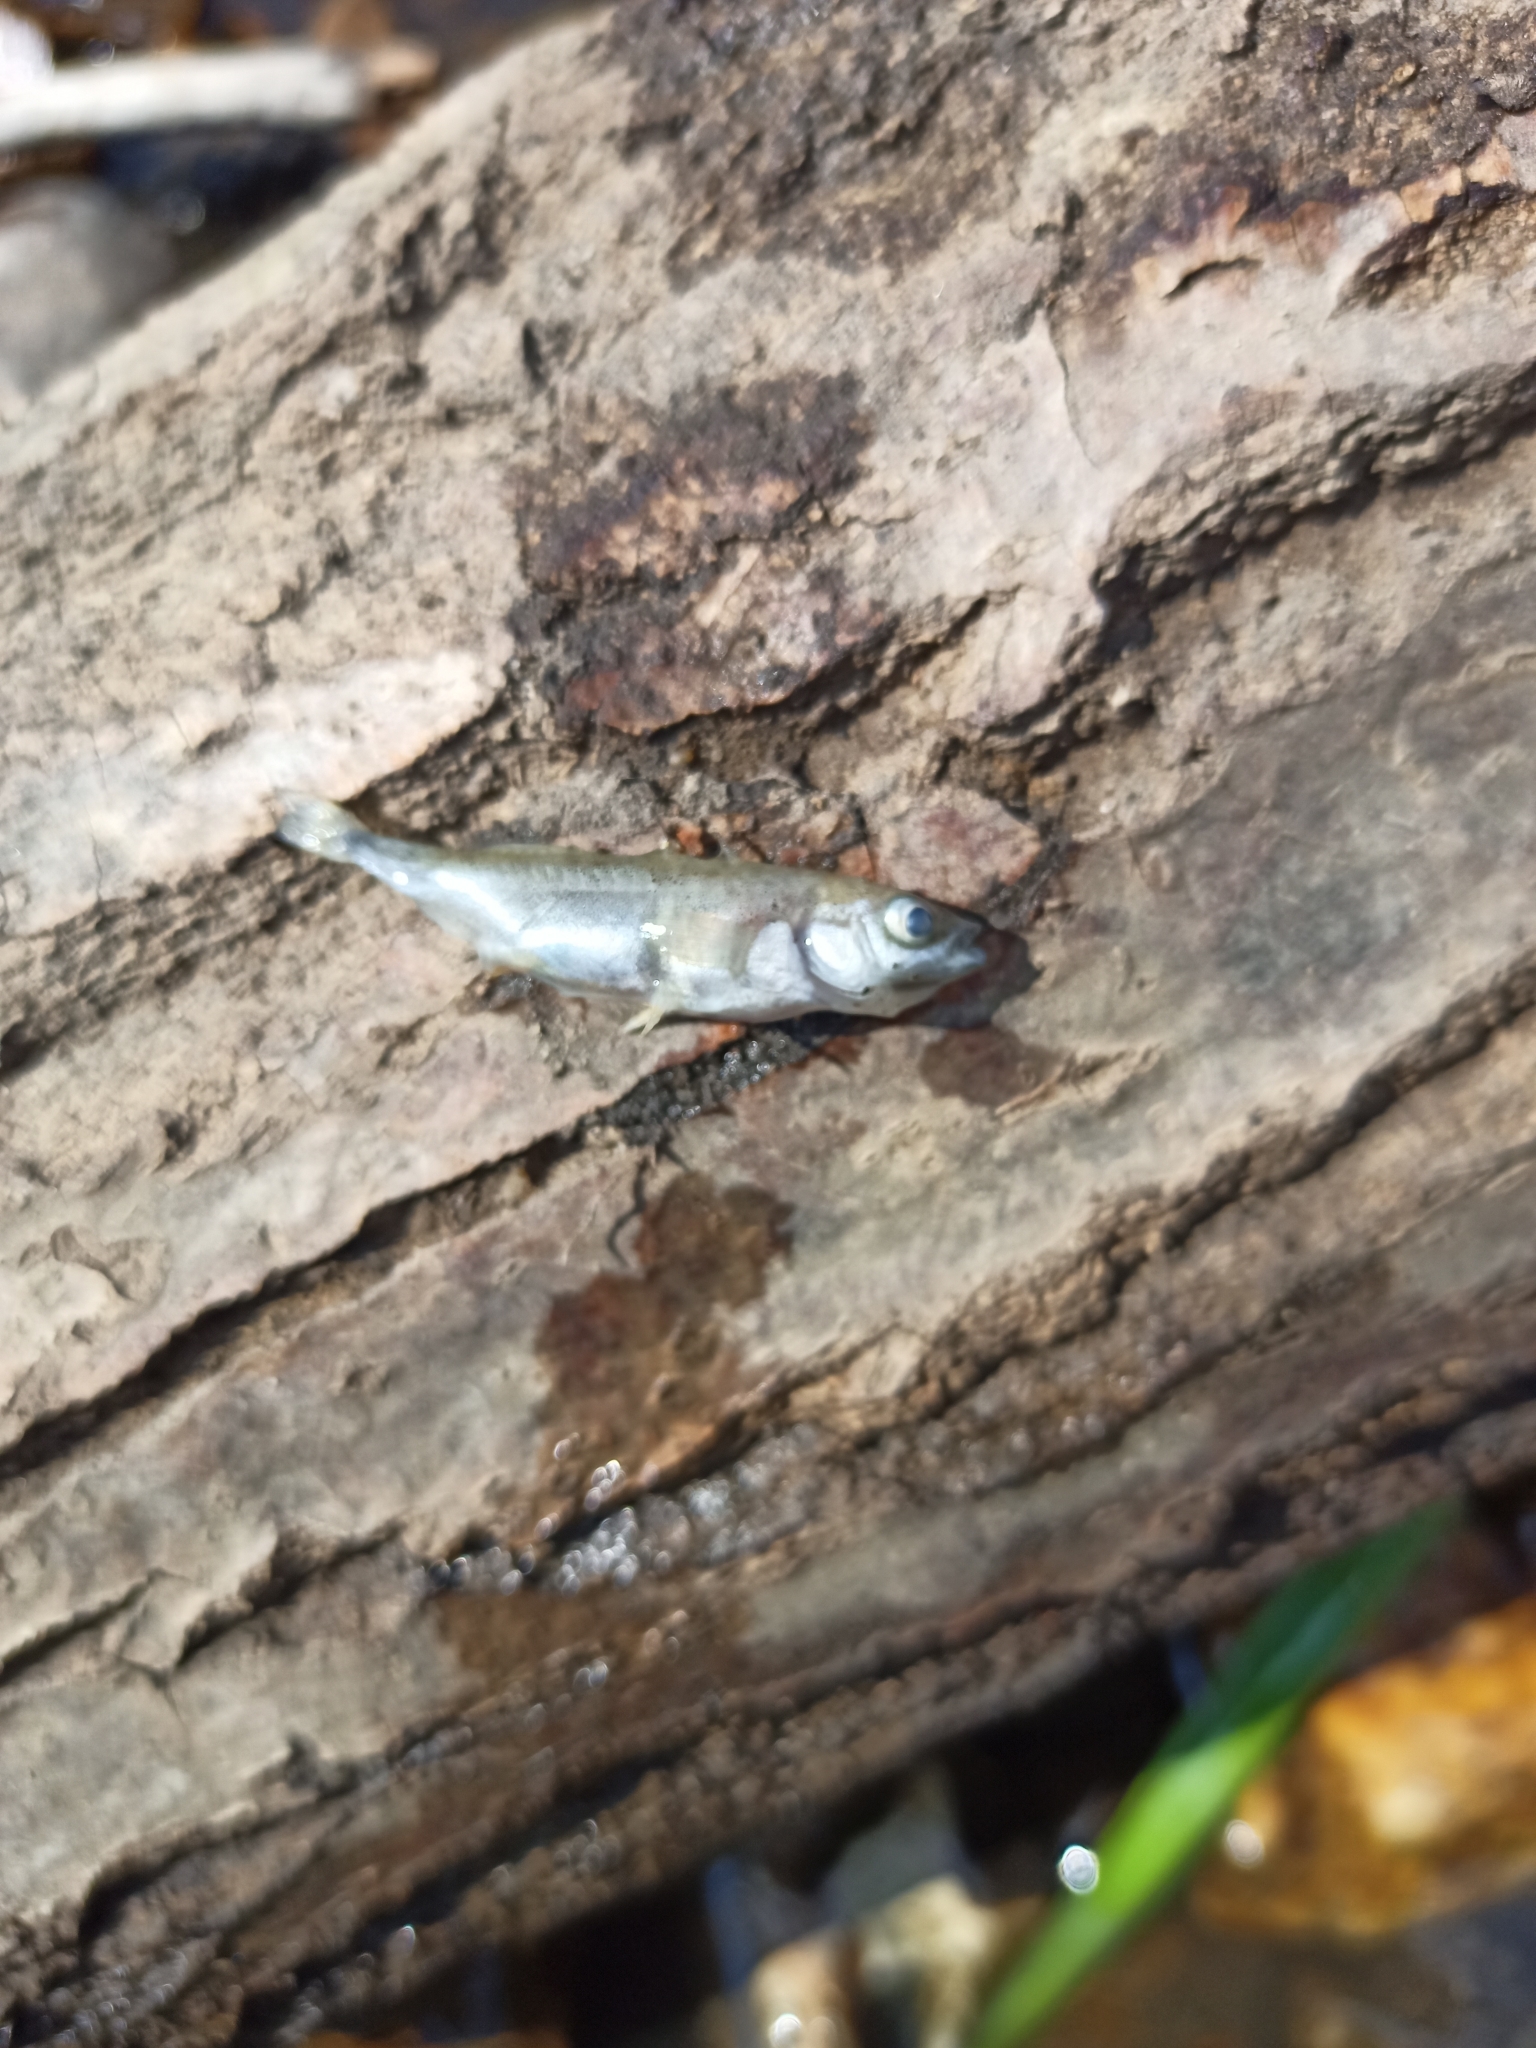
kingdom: Animalia
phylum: Chordata
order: Gasterosteiformes
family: Gasterosteidae
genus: Gasterosteus
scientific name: Gasterosteus aculeatus
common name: Three-spined stickleback
